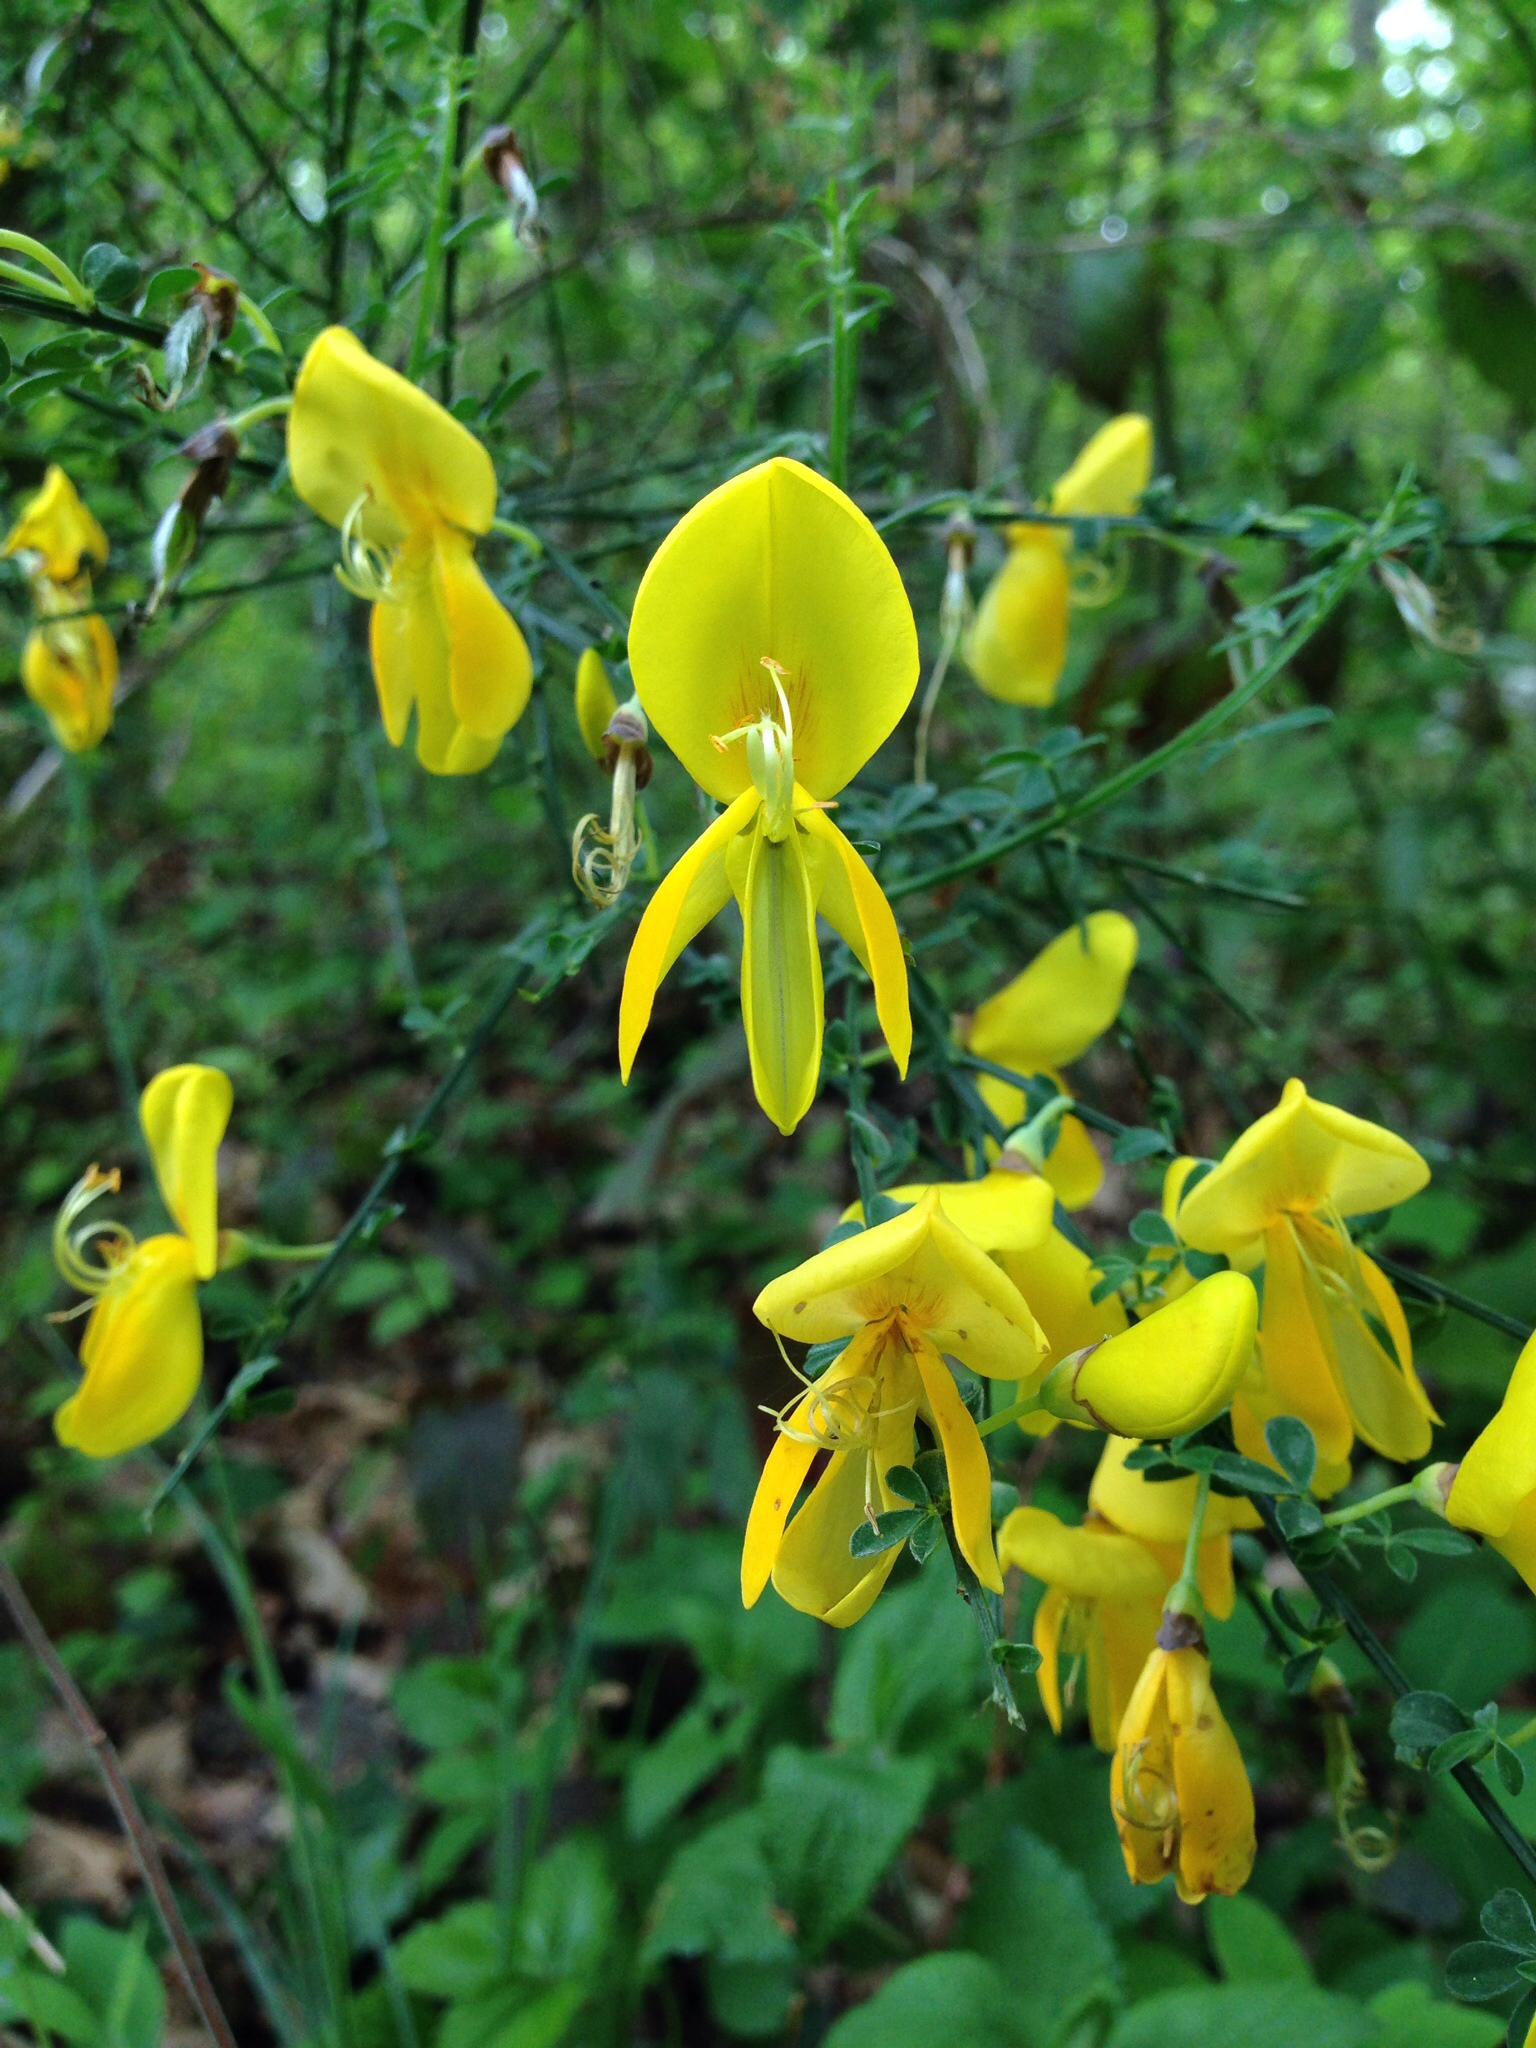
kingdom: Plantae
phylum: Tracheophyta
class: Magnoliopsida
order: Fabales
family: Fabaceae
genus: Cytisus
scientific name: Cytisus scoparius
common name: Scotch broom
